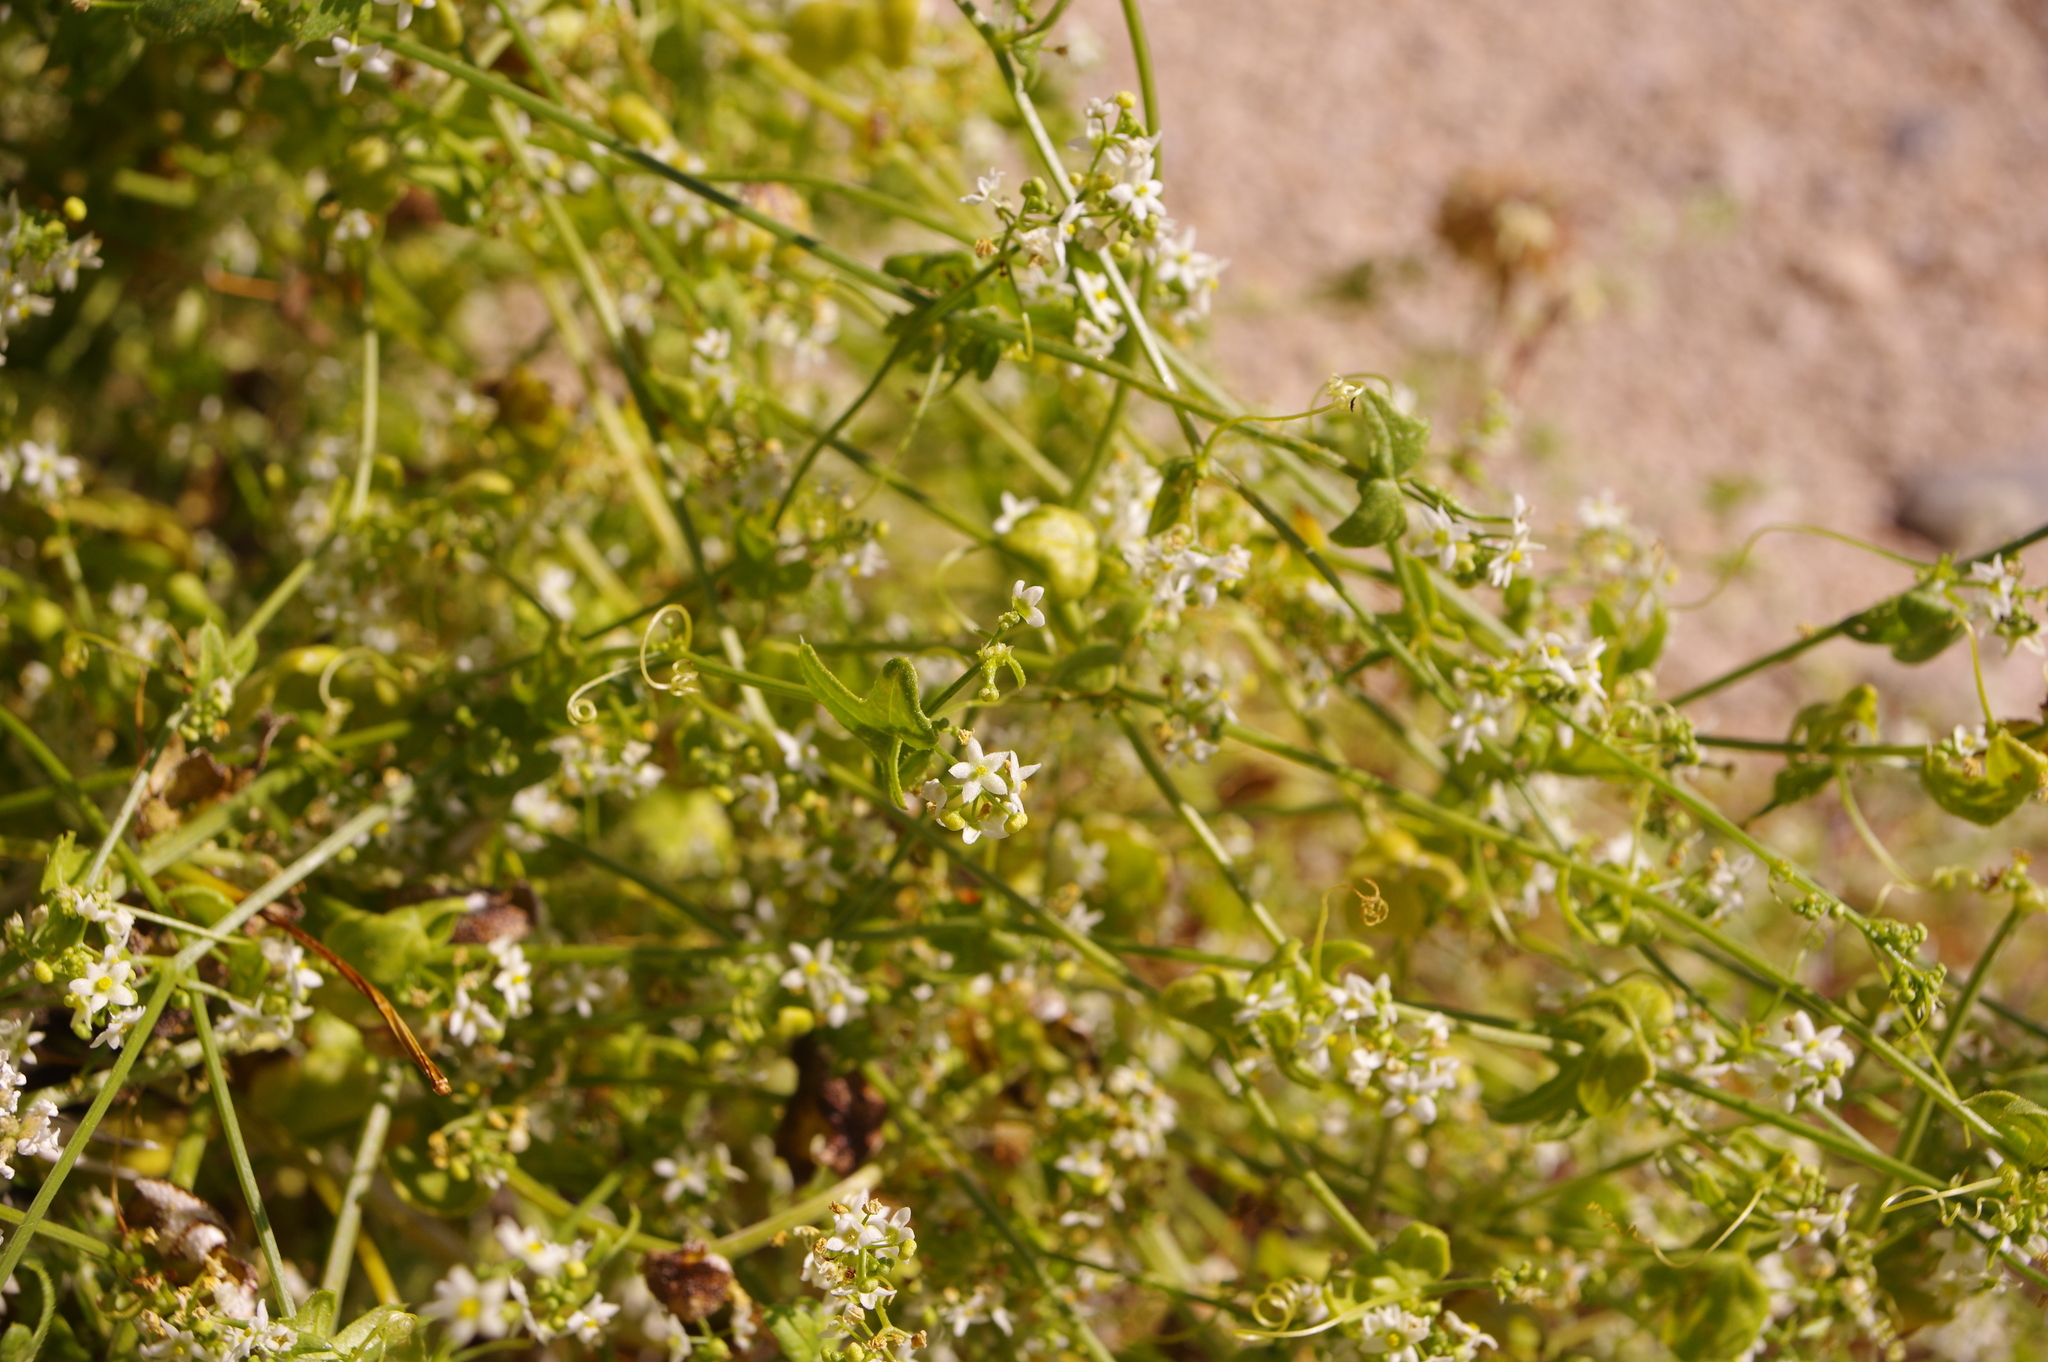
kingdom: Plantae
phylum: Tracheophyta
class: Magnoliopsida
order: Cucurbitales
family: Cucurbitaceae
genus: Echinopepon
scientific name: Echinopepon bigelovii
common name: Desert starvine
